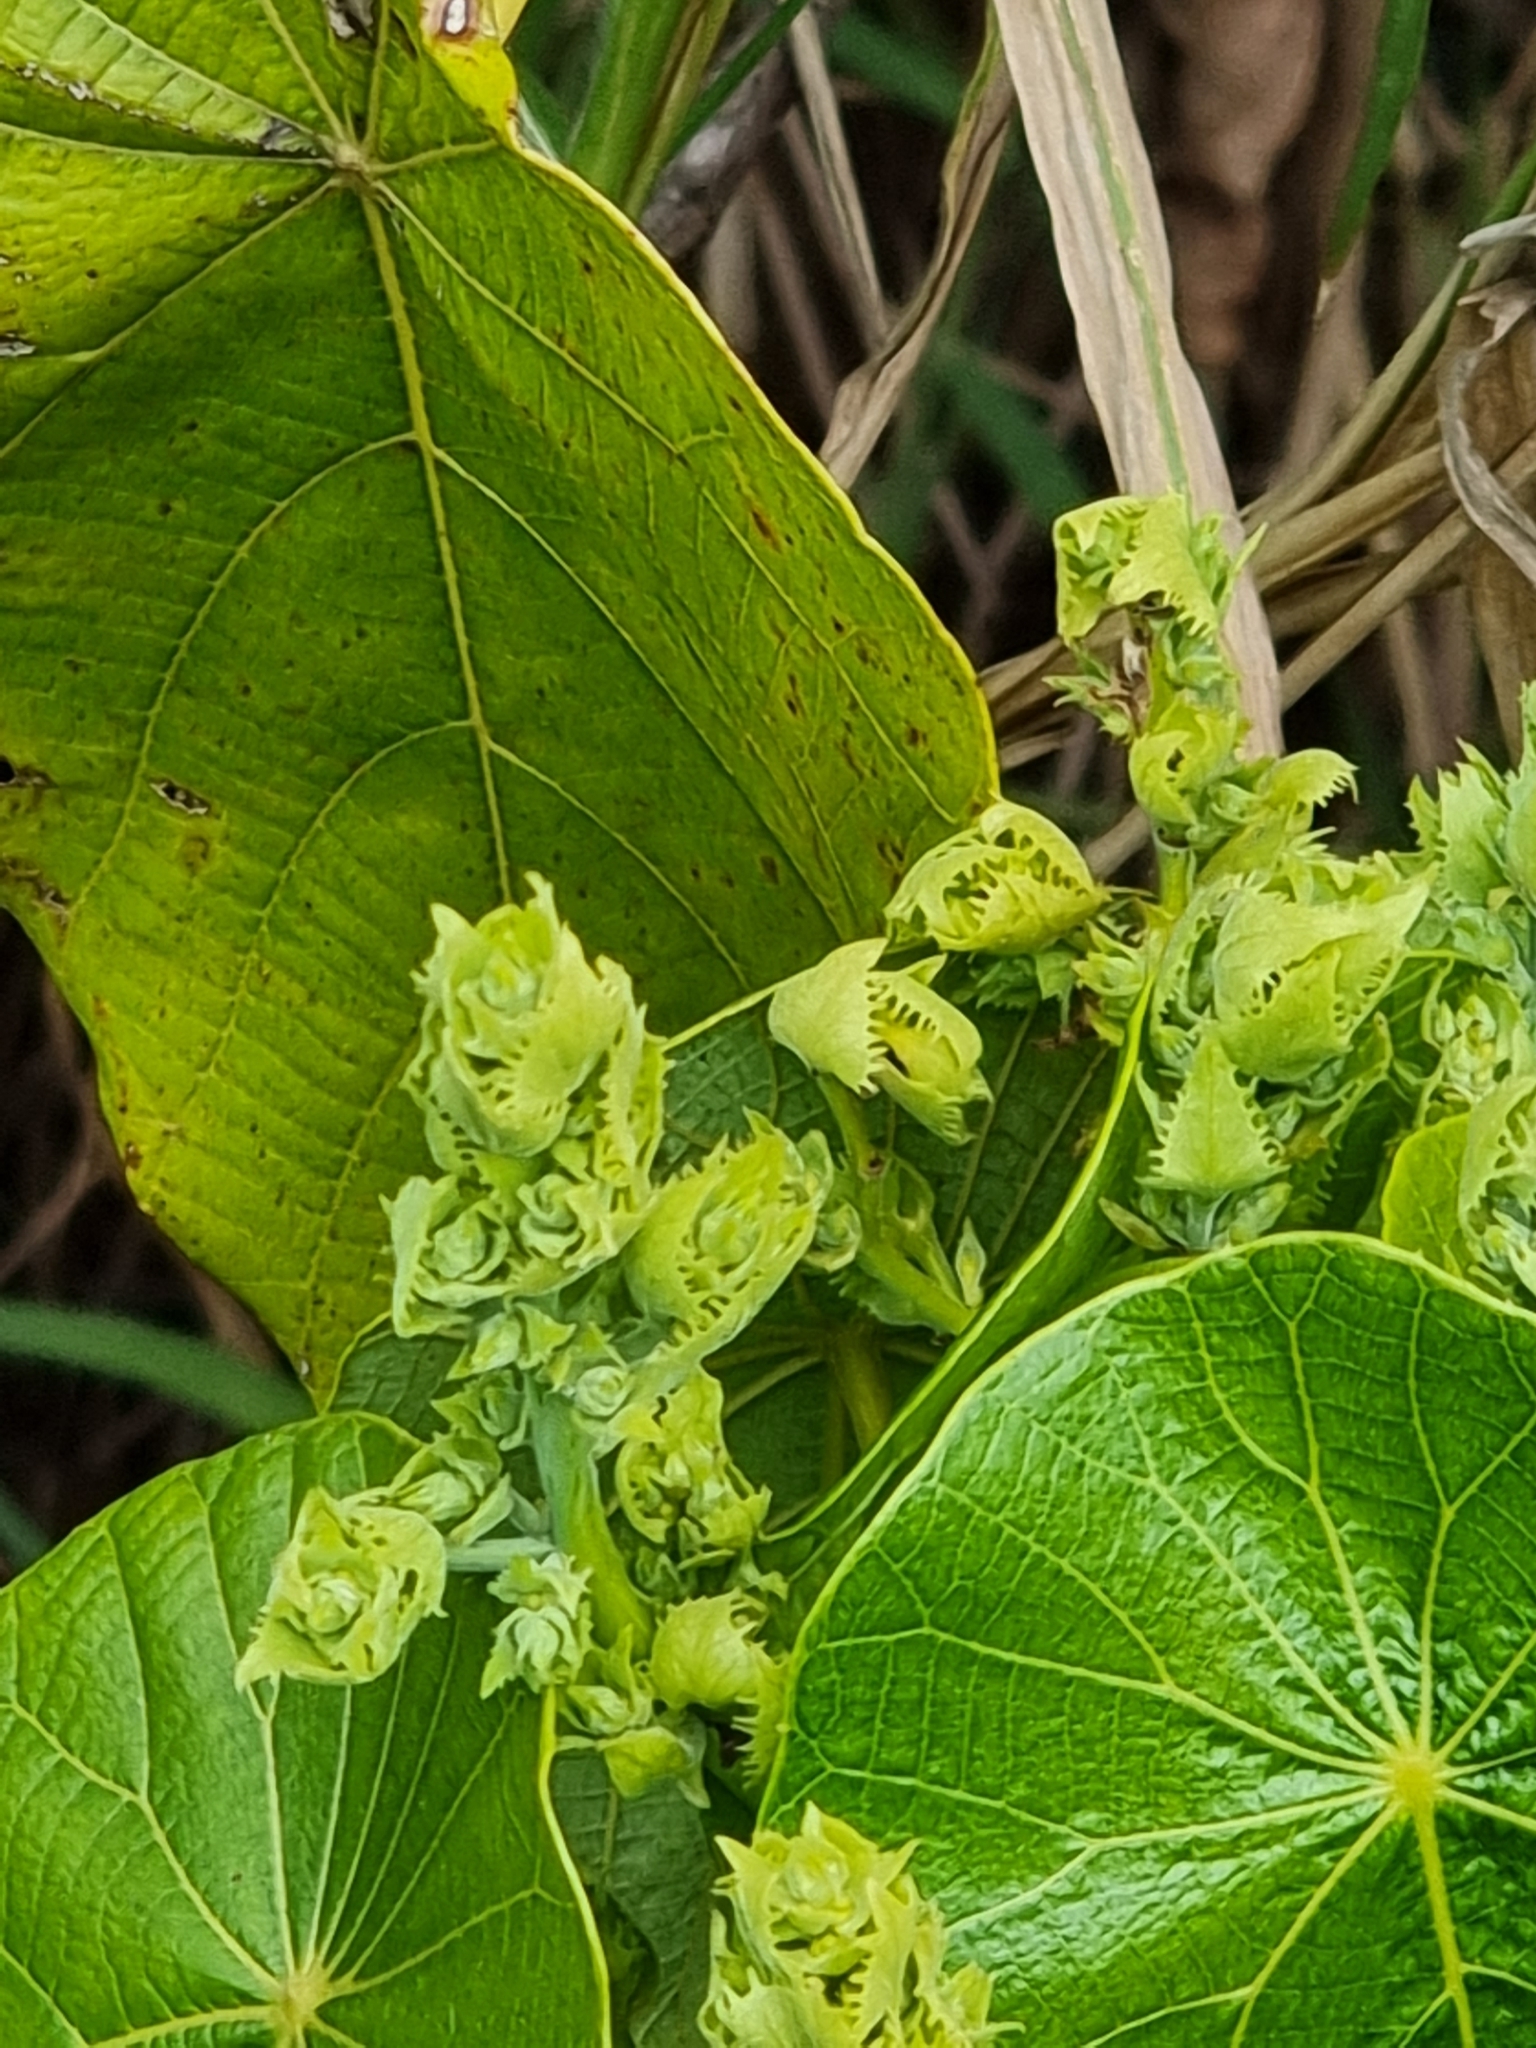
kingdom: Plantae
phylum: Tracheophyta
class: Magnoliopsida
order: Malpighiales
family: Euphorbiaceae
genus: Macaranga
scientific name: Macaranga tanarius
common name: Parasol leaf tree
